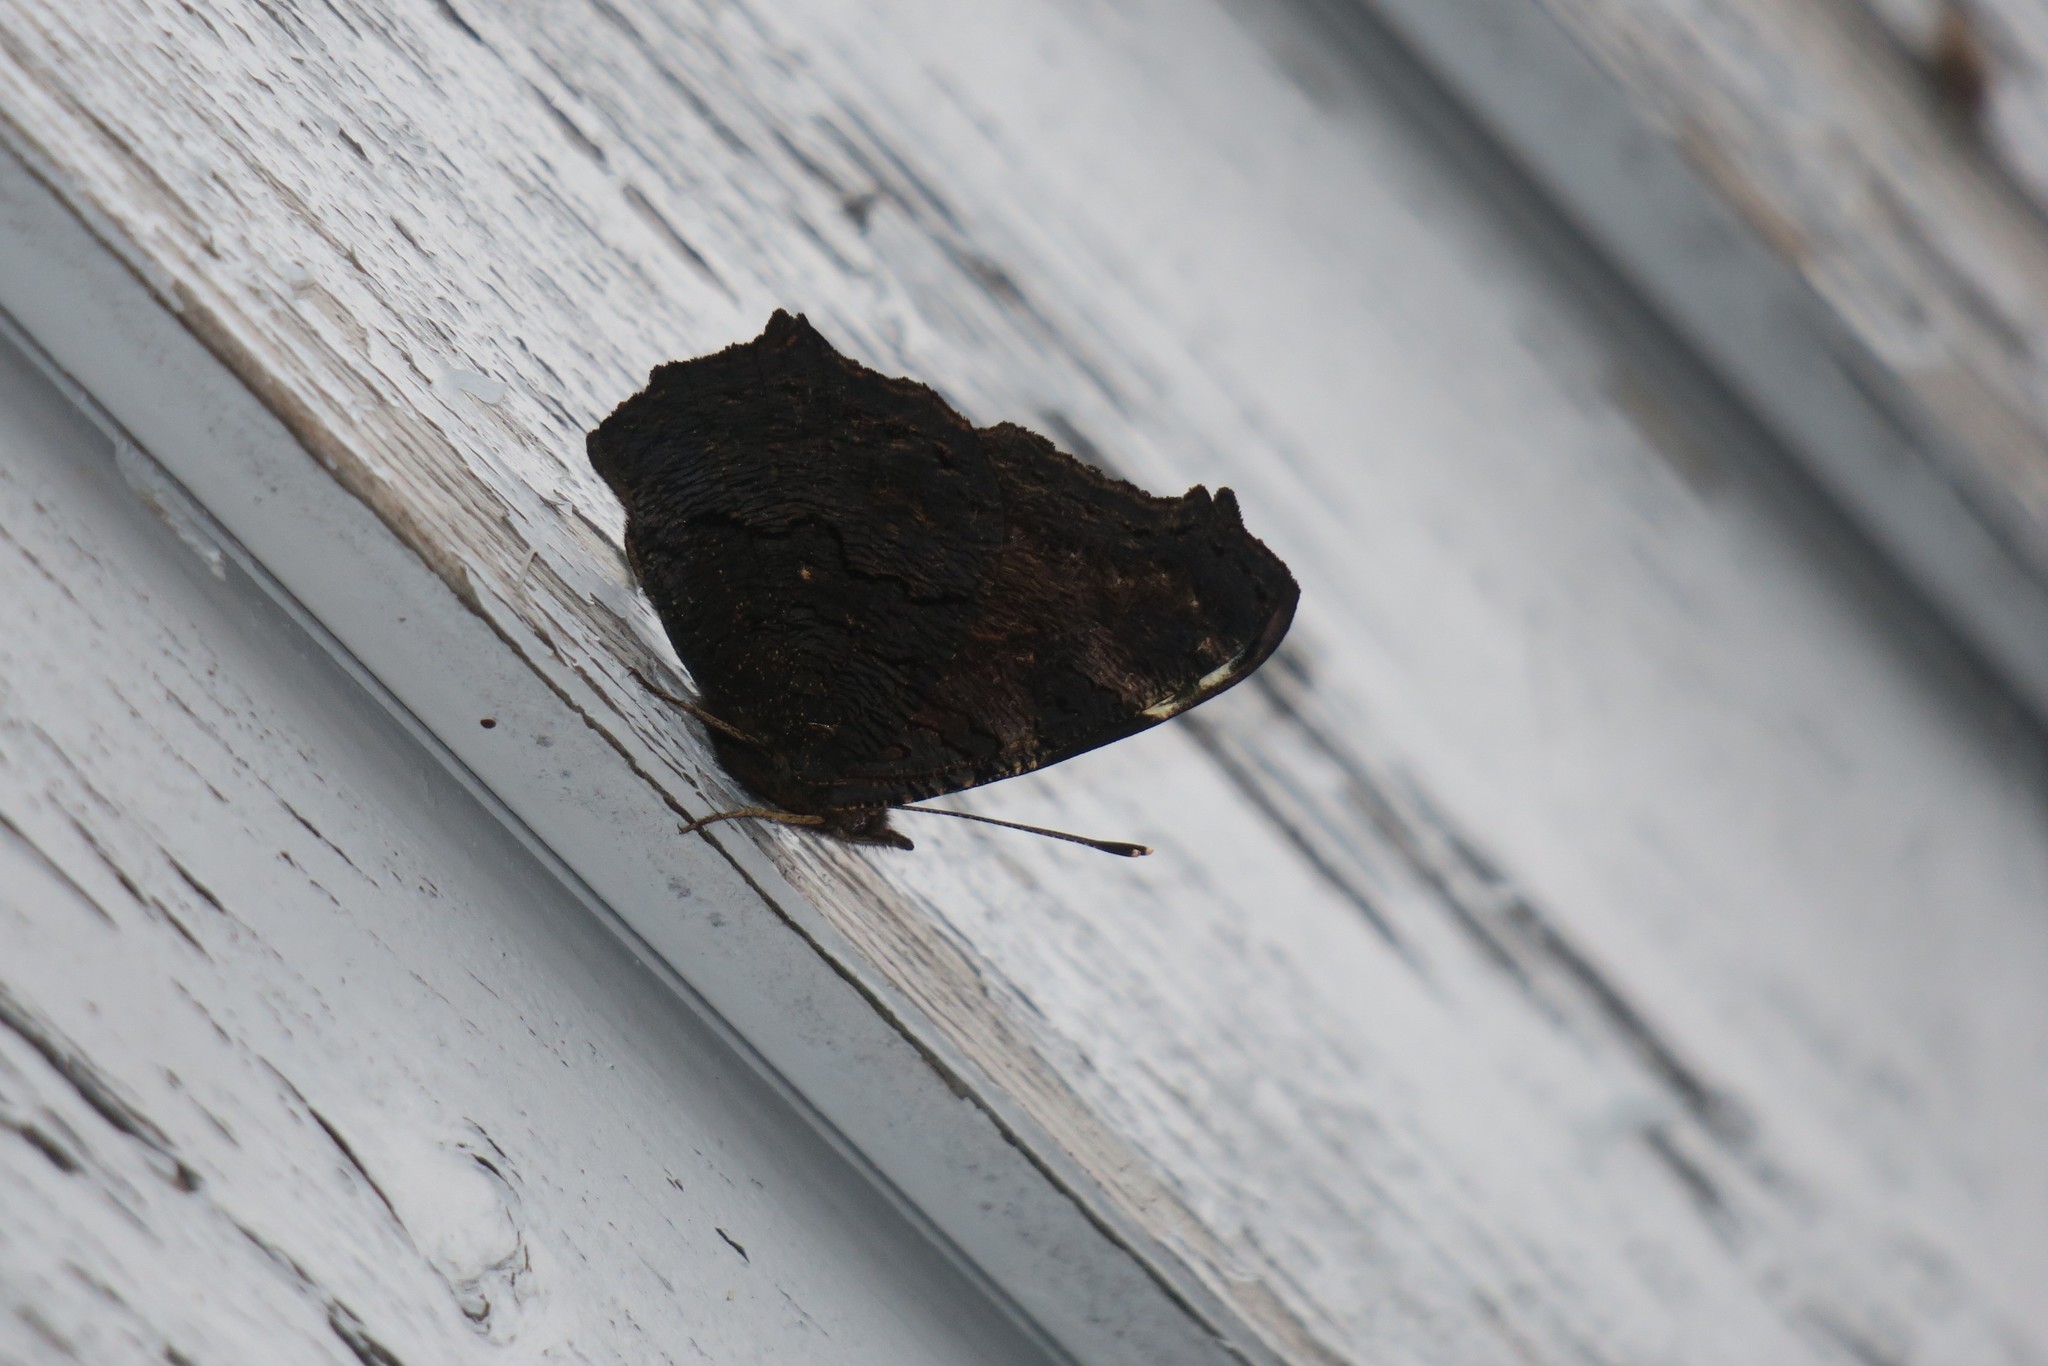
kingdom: Animalia
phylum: Arthropoda
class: Insecta
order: Lepidoptera
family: Nymphalidae
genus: Aglais
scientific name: Aglais io
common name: Peacock
